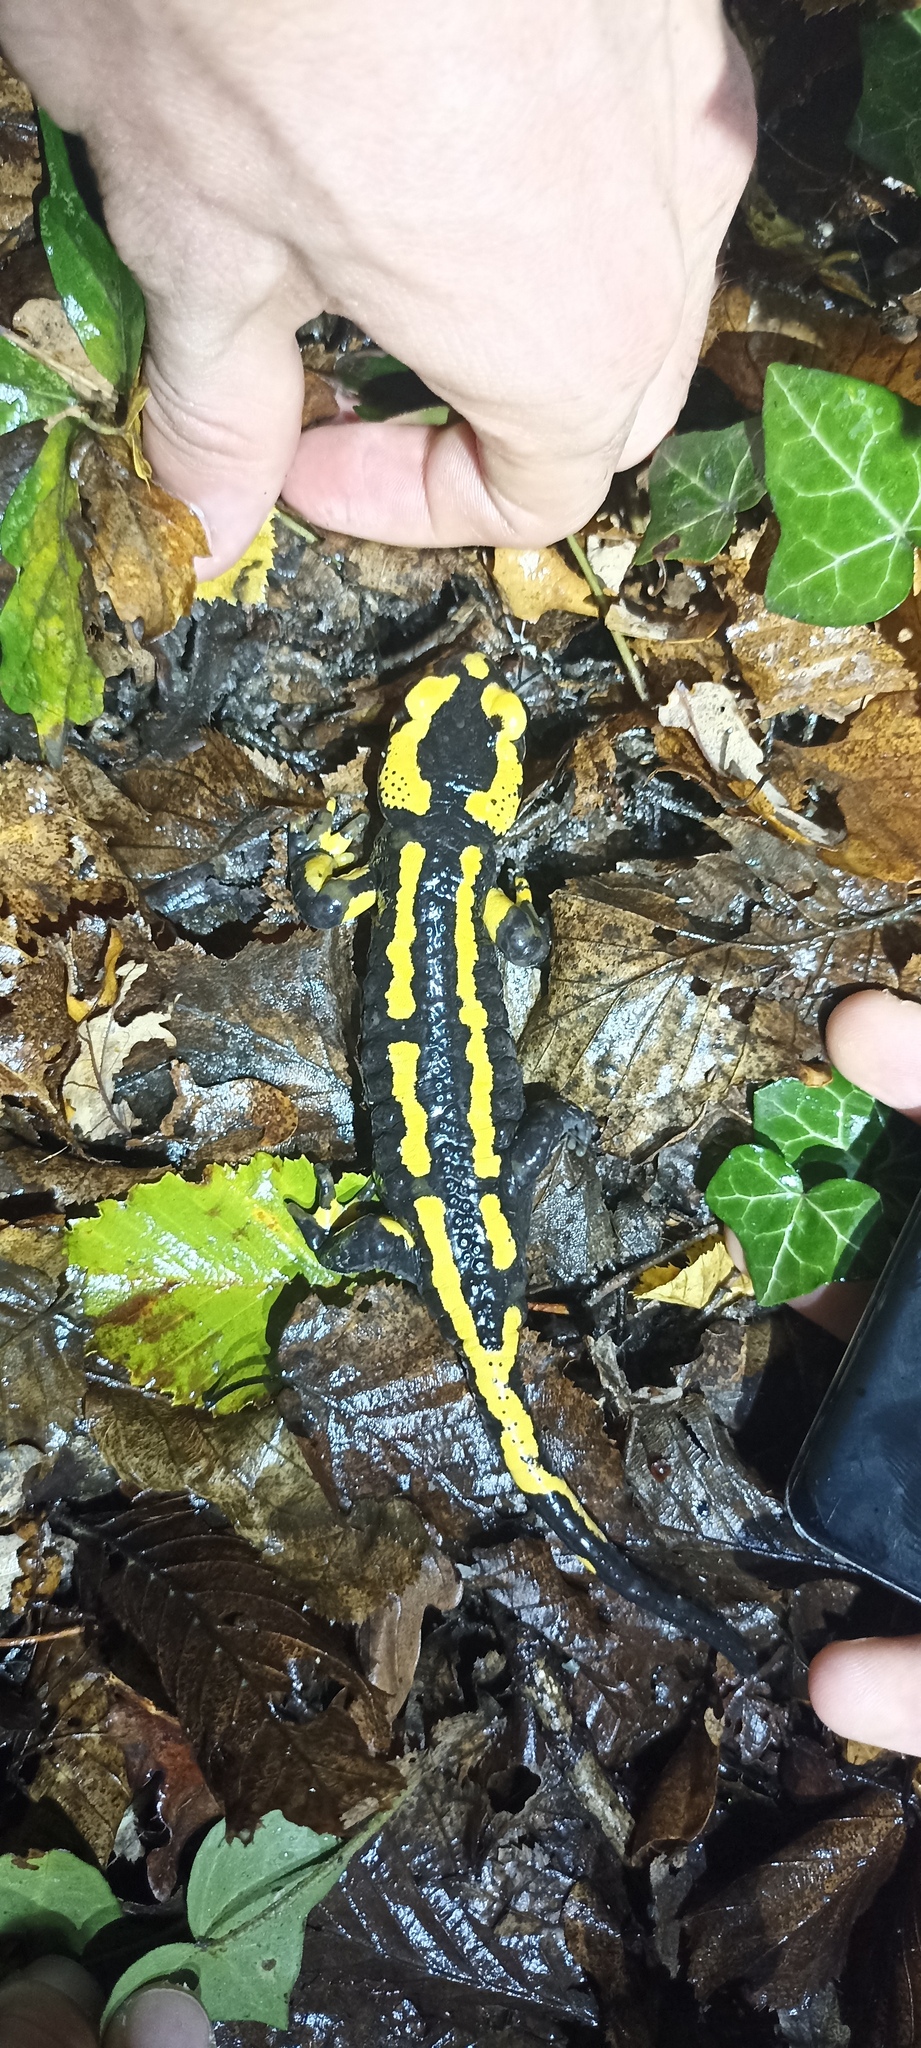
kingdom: Animalia
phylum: Chordata
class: Amphibia
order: Caudata
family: Salamandridae
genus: Salamandra
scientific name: Salamandra salamandra
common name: Fire salamander
